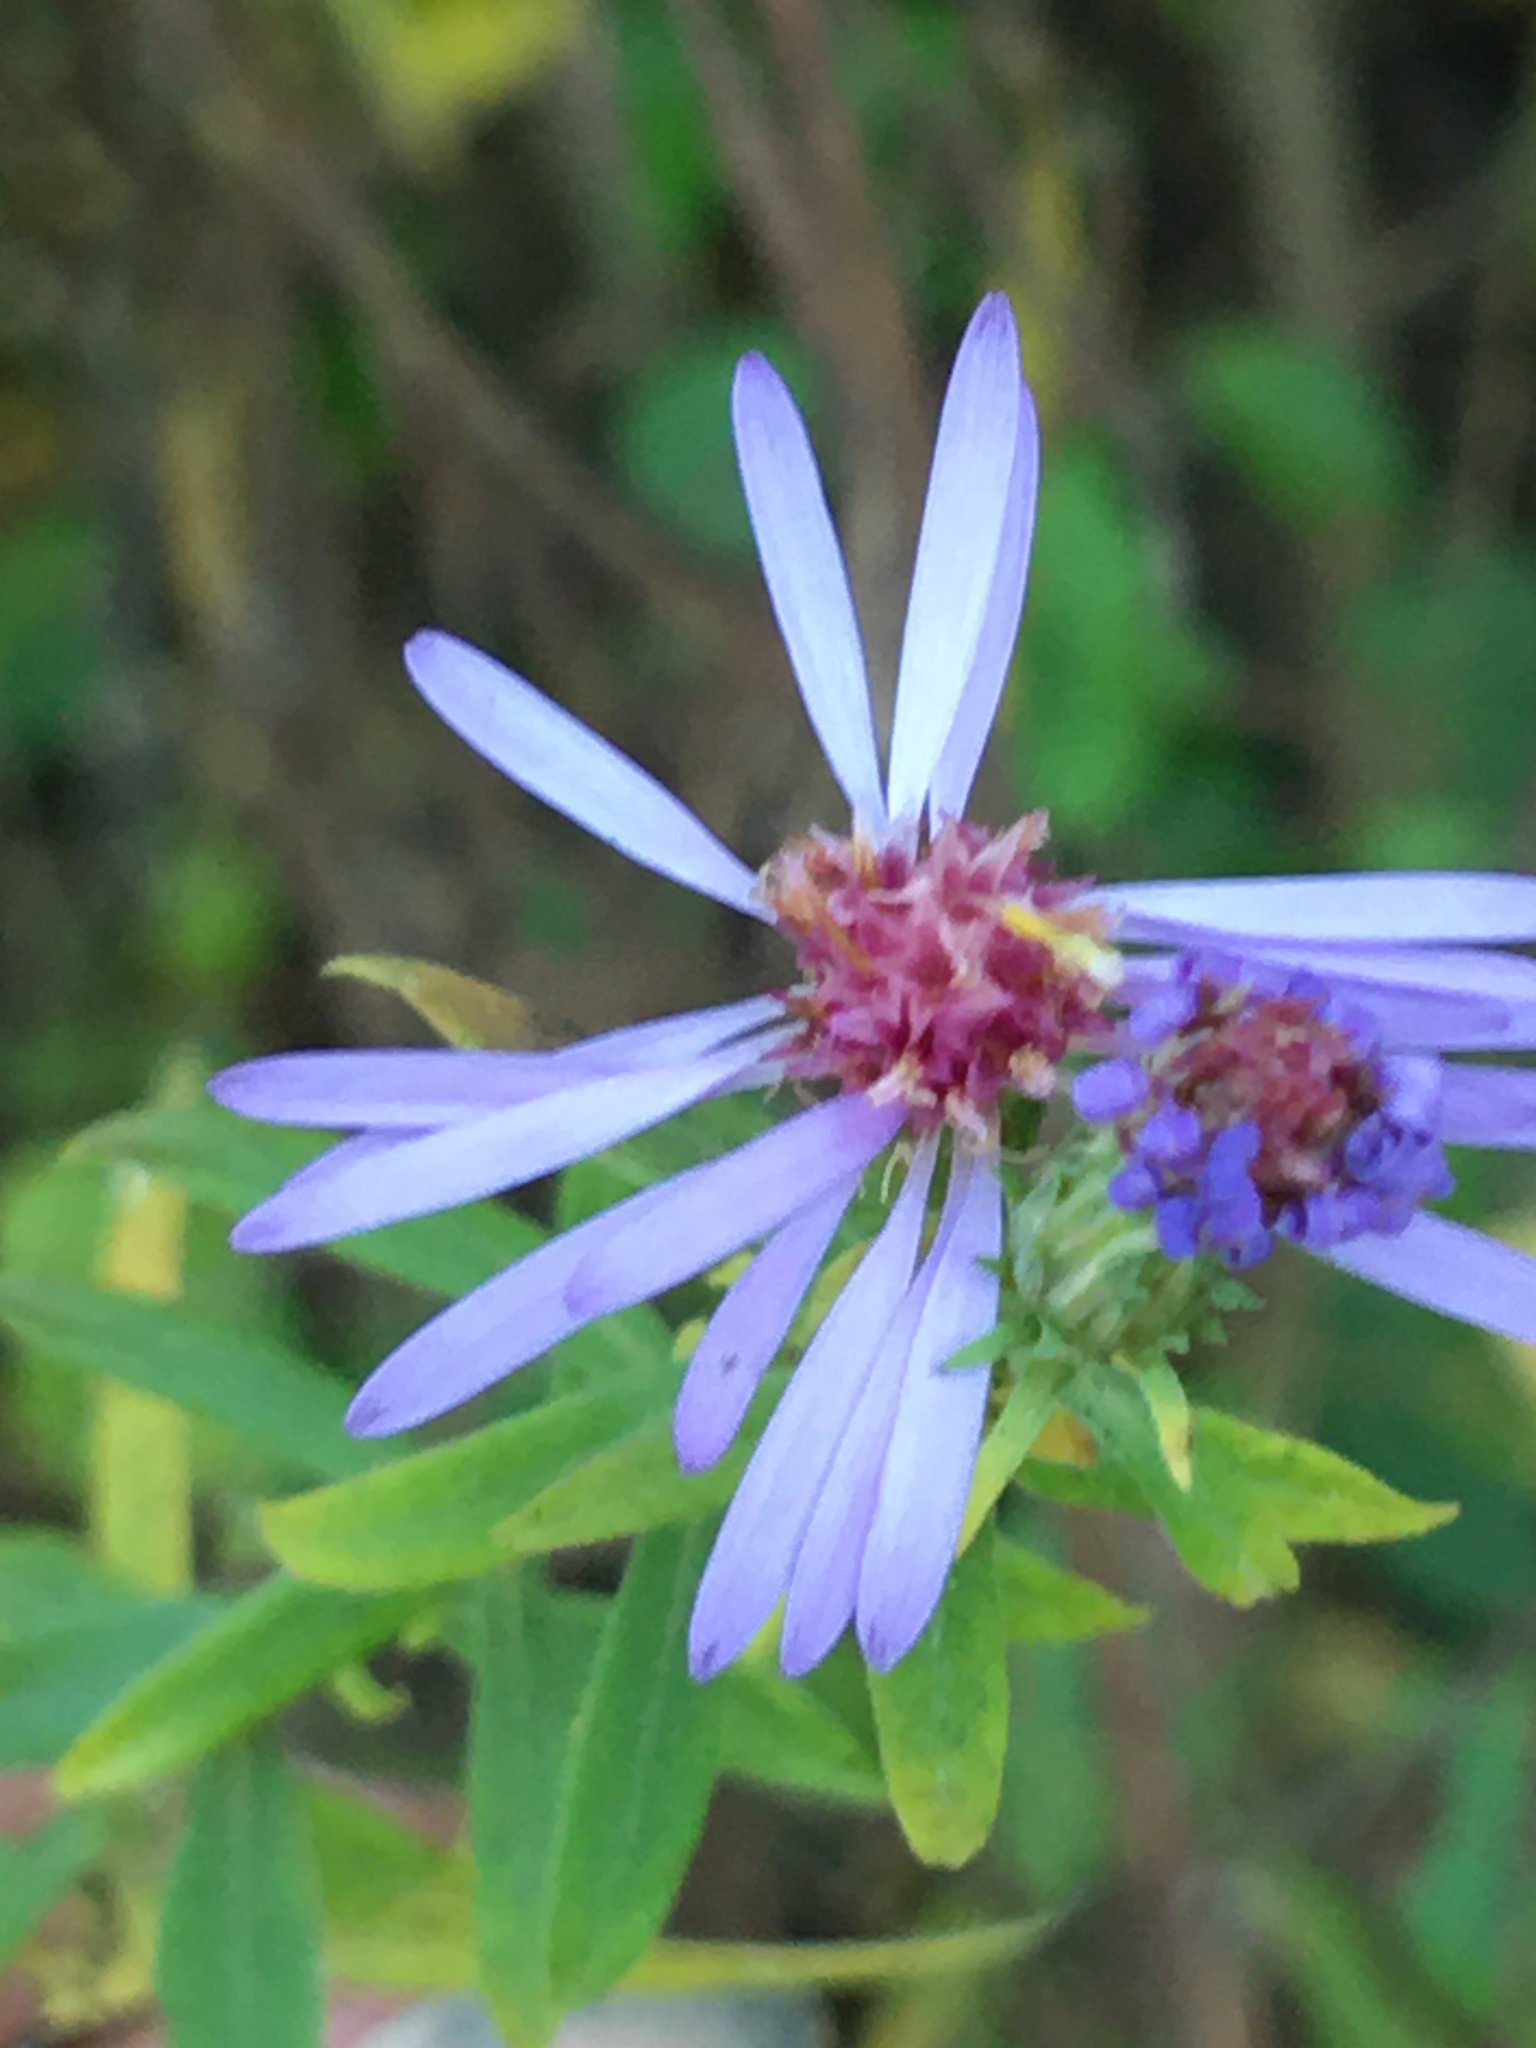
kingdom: Plantae
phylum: Tracheophyta
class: Magnoliopsida
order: Asterales
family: Asteraceae
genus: Symphyotrichum
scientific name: Symphyotrichum praealtum
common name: Willow aster
